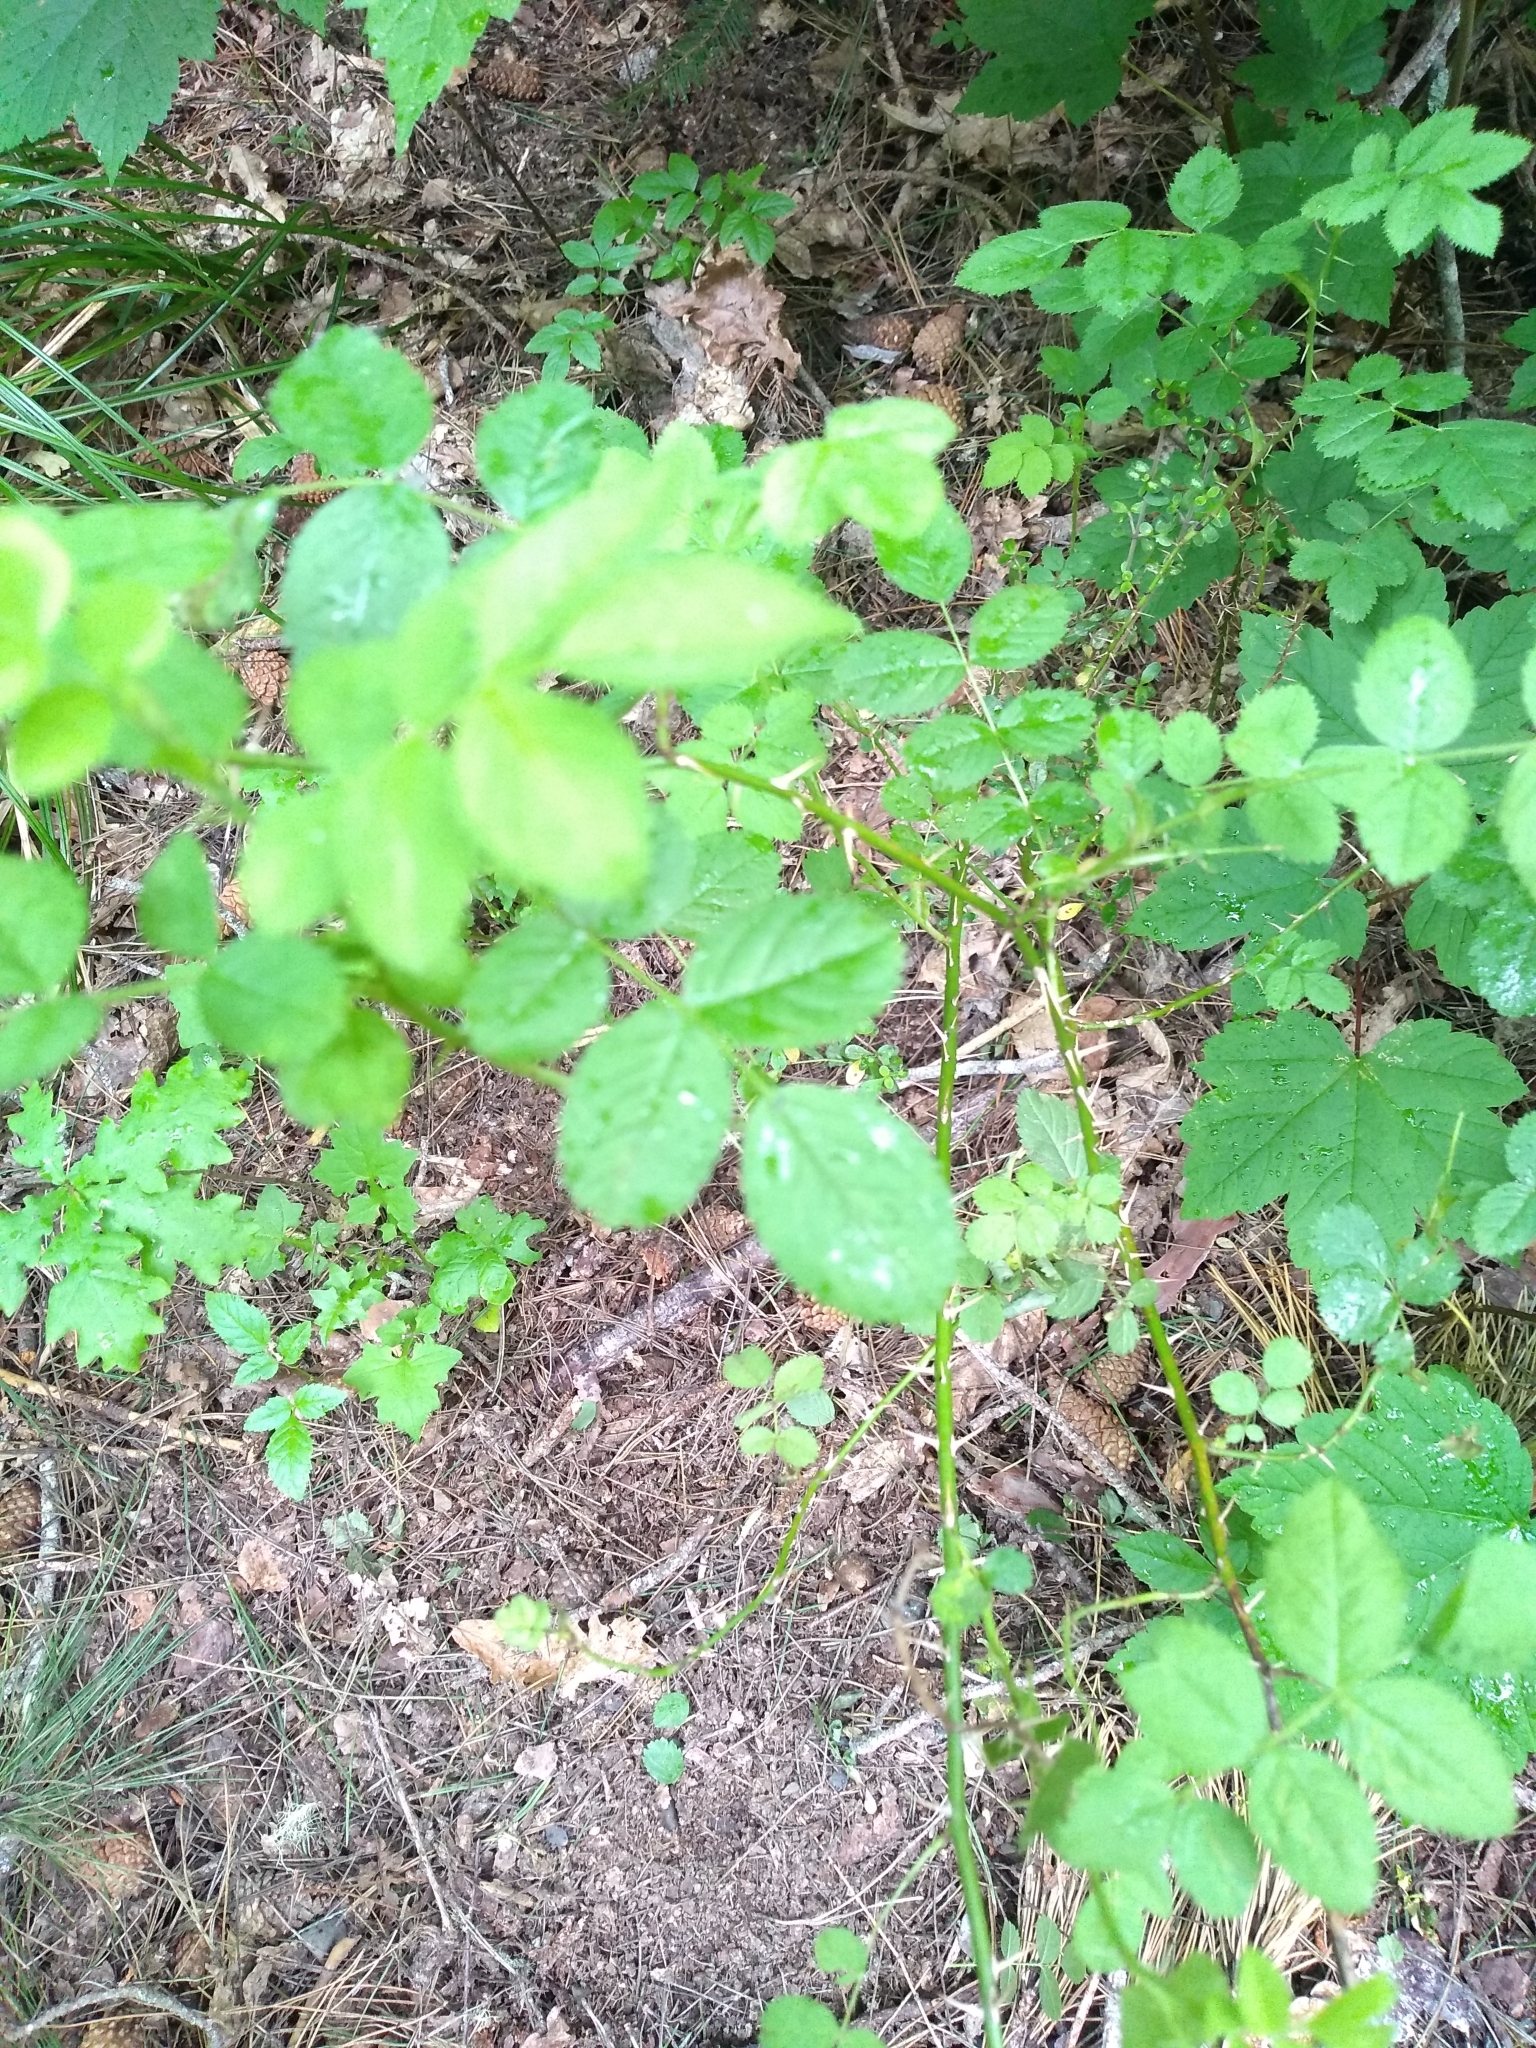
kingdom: Plantae
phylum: Tracheophyta
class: Magnoliopsida
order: Rosales
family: Rosaceae
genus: Rosa
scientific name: Rosa rubiginosa
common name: Sweet-briar
